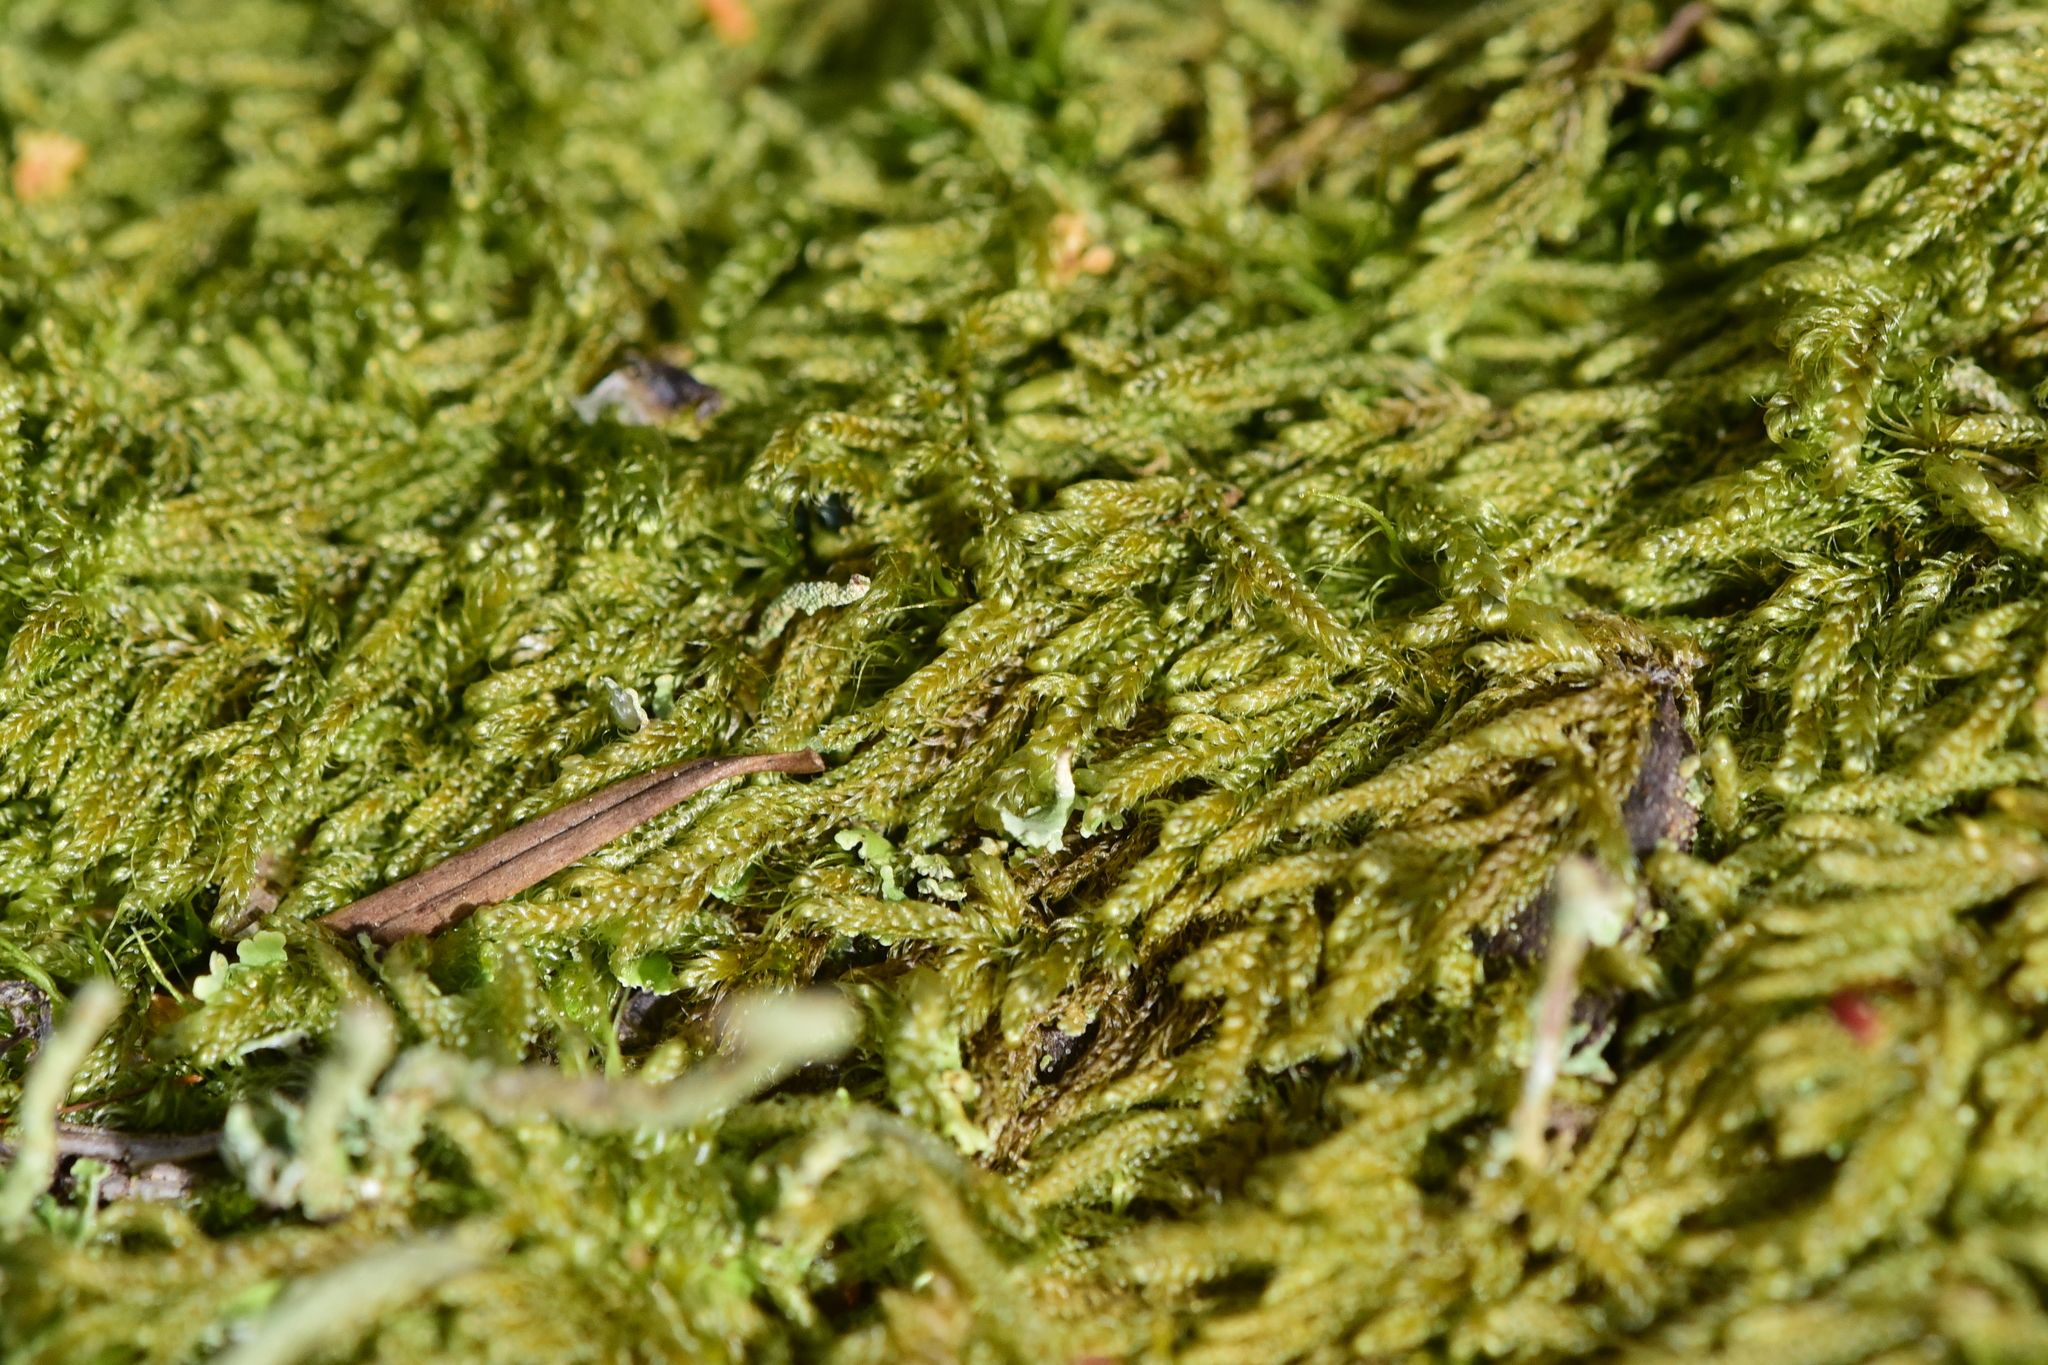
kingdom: Plantae
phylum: Bryophyta
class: Bryopsida
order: Hypnales
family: Pylaisiadelphaceae
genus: Trochophyllohypnum
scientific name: Trochophyllohypnum circinale
